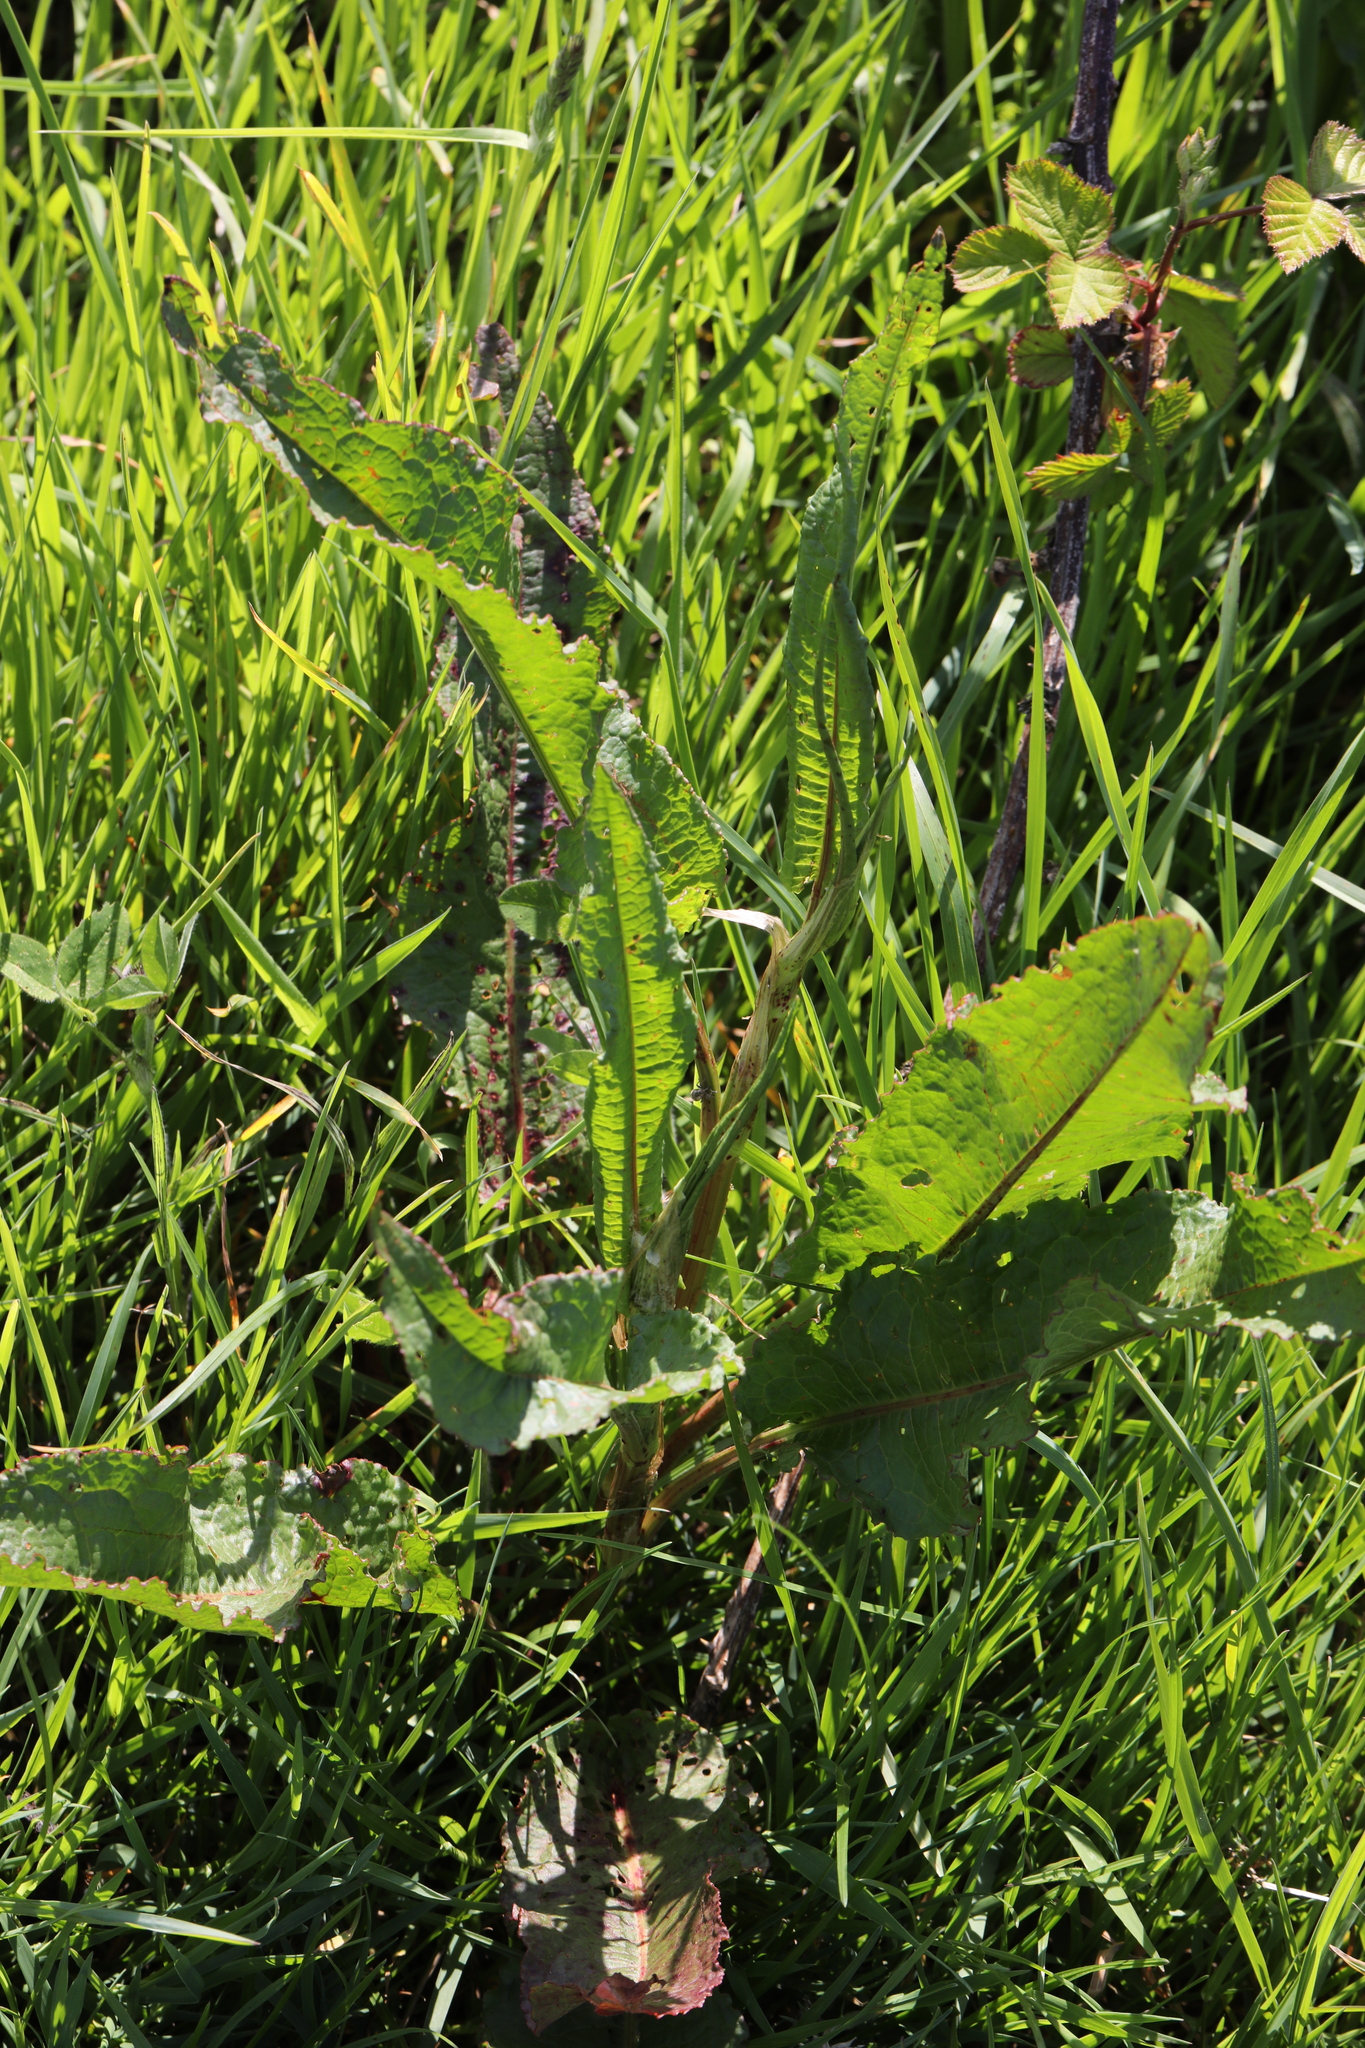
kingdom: Plantae
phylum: Tracheophyta
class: Magnoliopsida
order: Caryophyllales
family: Polygonaceae
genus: Rumex
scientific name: Rumex crispus
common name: Curled dock
